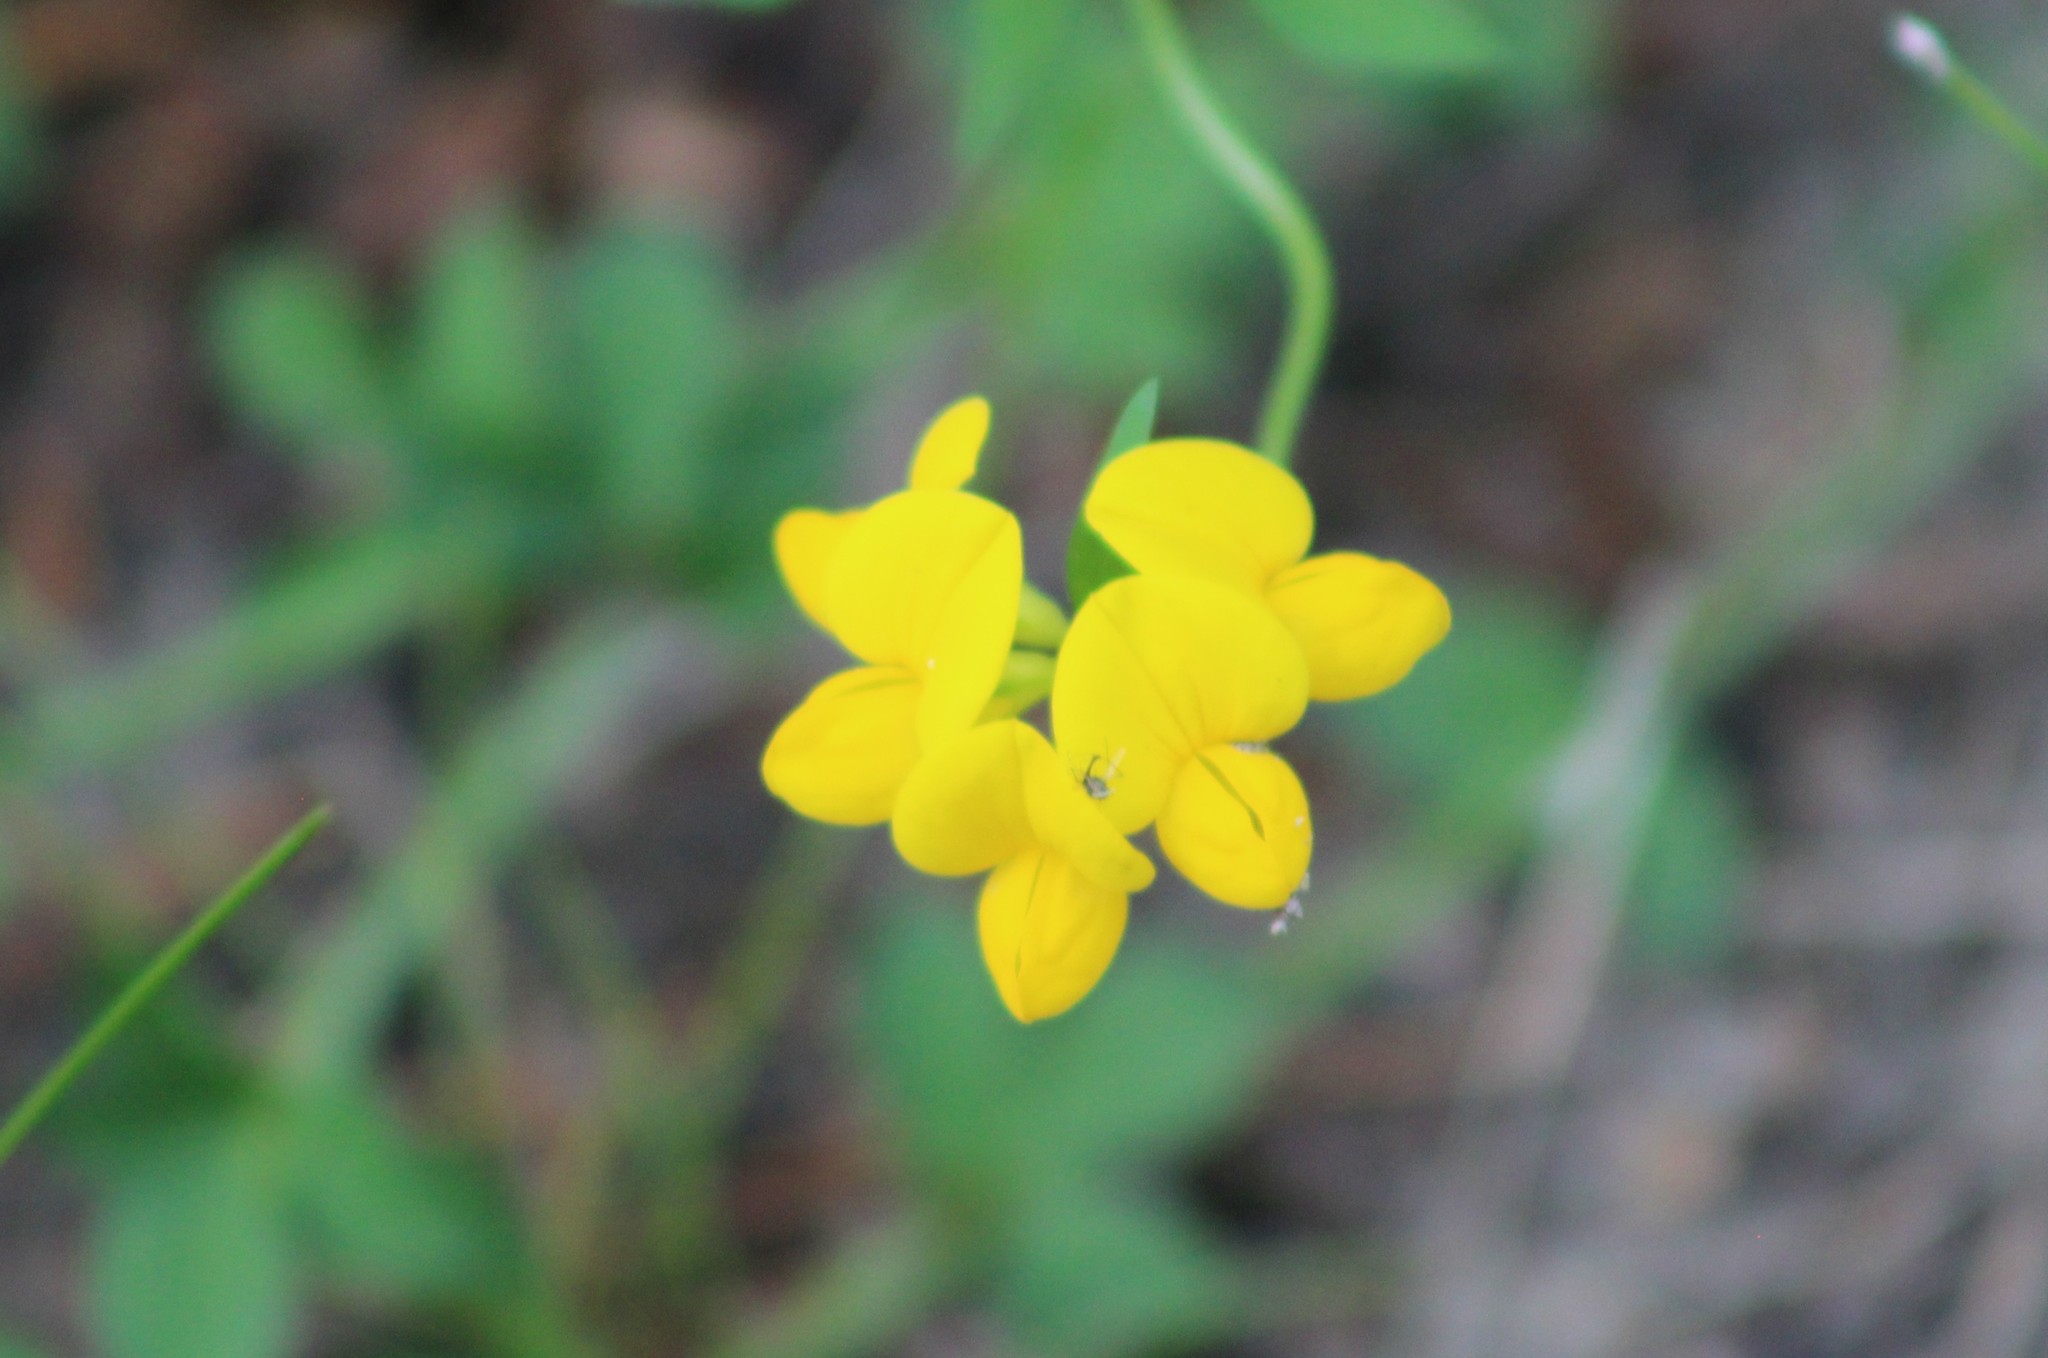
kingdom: Plantae
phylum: Tracheophyta
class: Magnoliopsida
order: Fabales
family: Fabaceae
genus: Lotus
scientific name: Lotus corniculatus
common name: Common bird's-foot-trefoil
